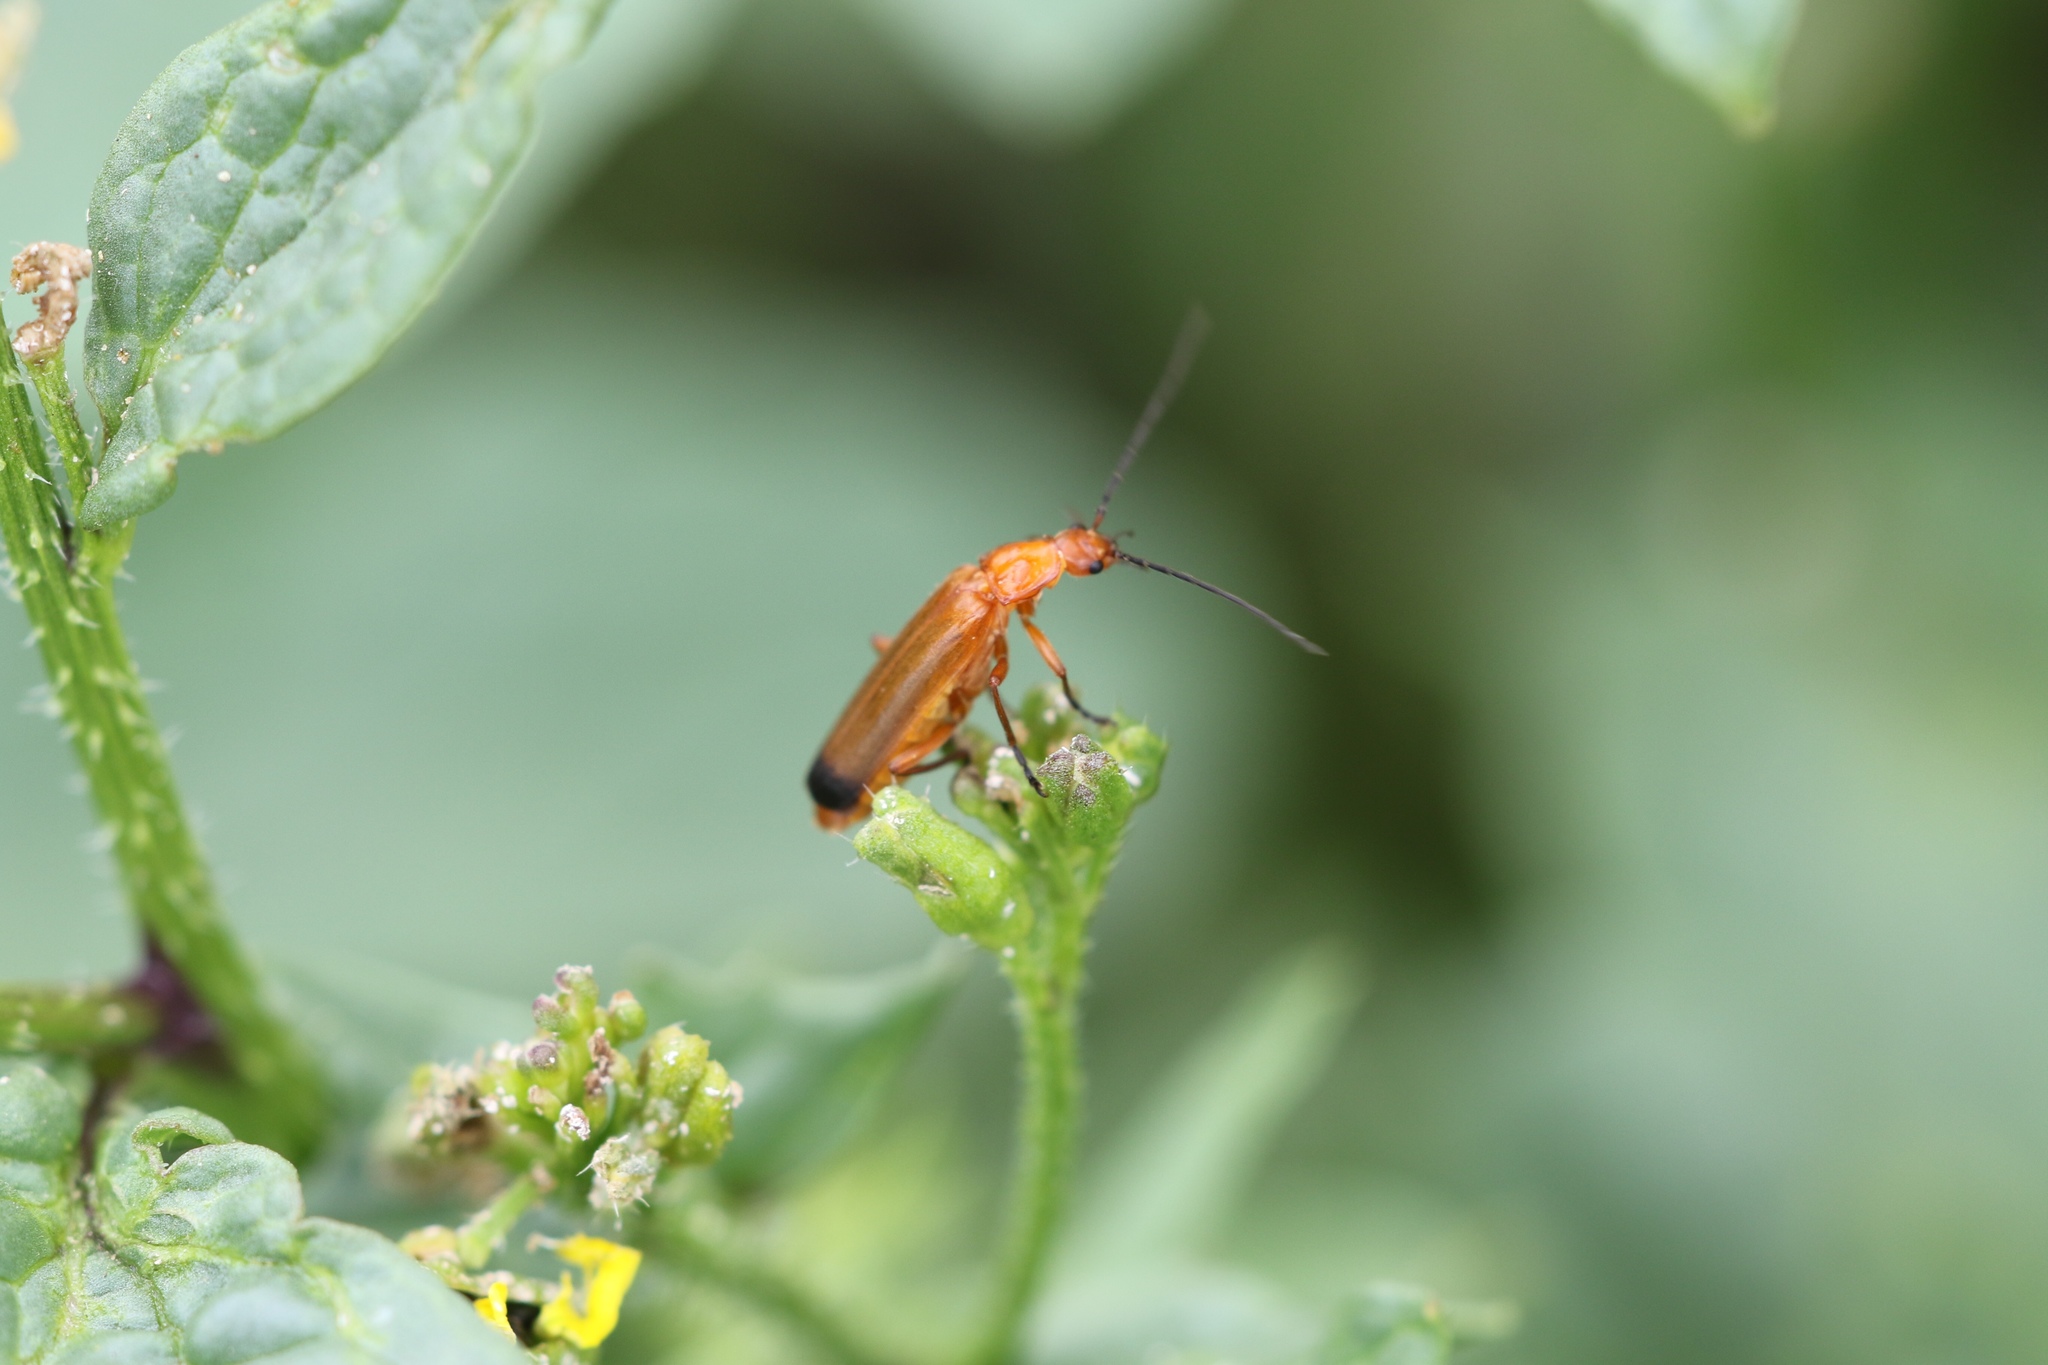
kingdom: Animalia
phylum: Arthropoda
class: Insecta
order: Coleoptera
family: Cantharidae
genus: Rhagonycha
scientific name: Rhagonycha fulva
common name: Common red soldier beetle
